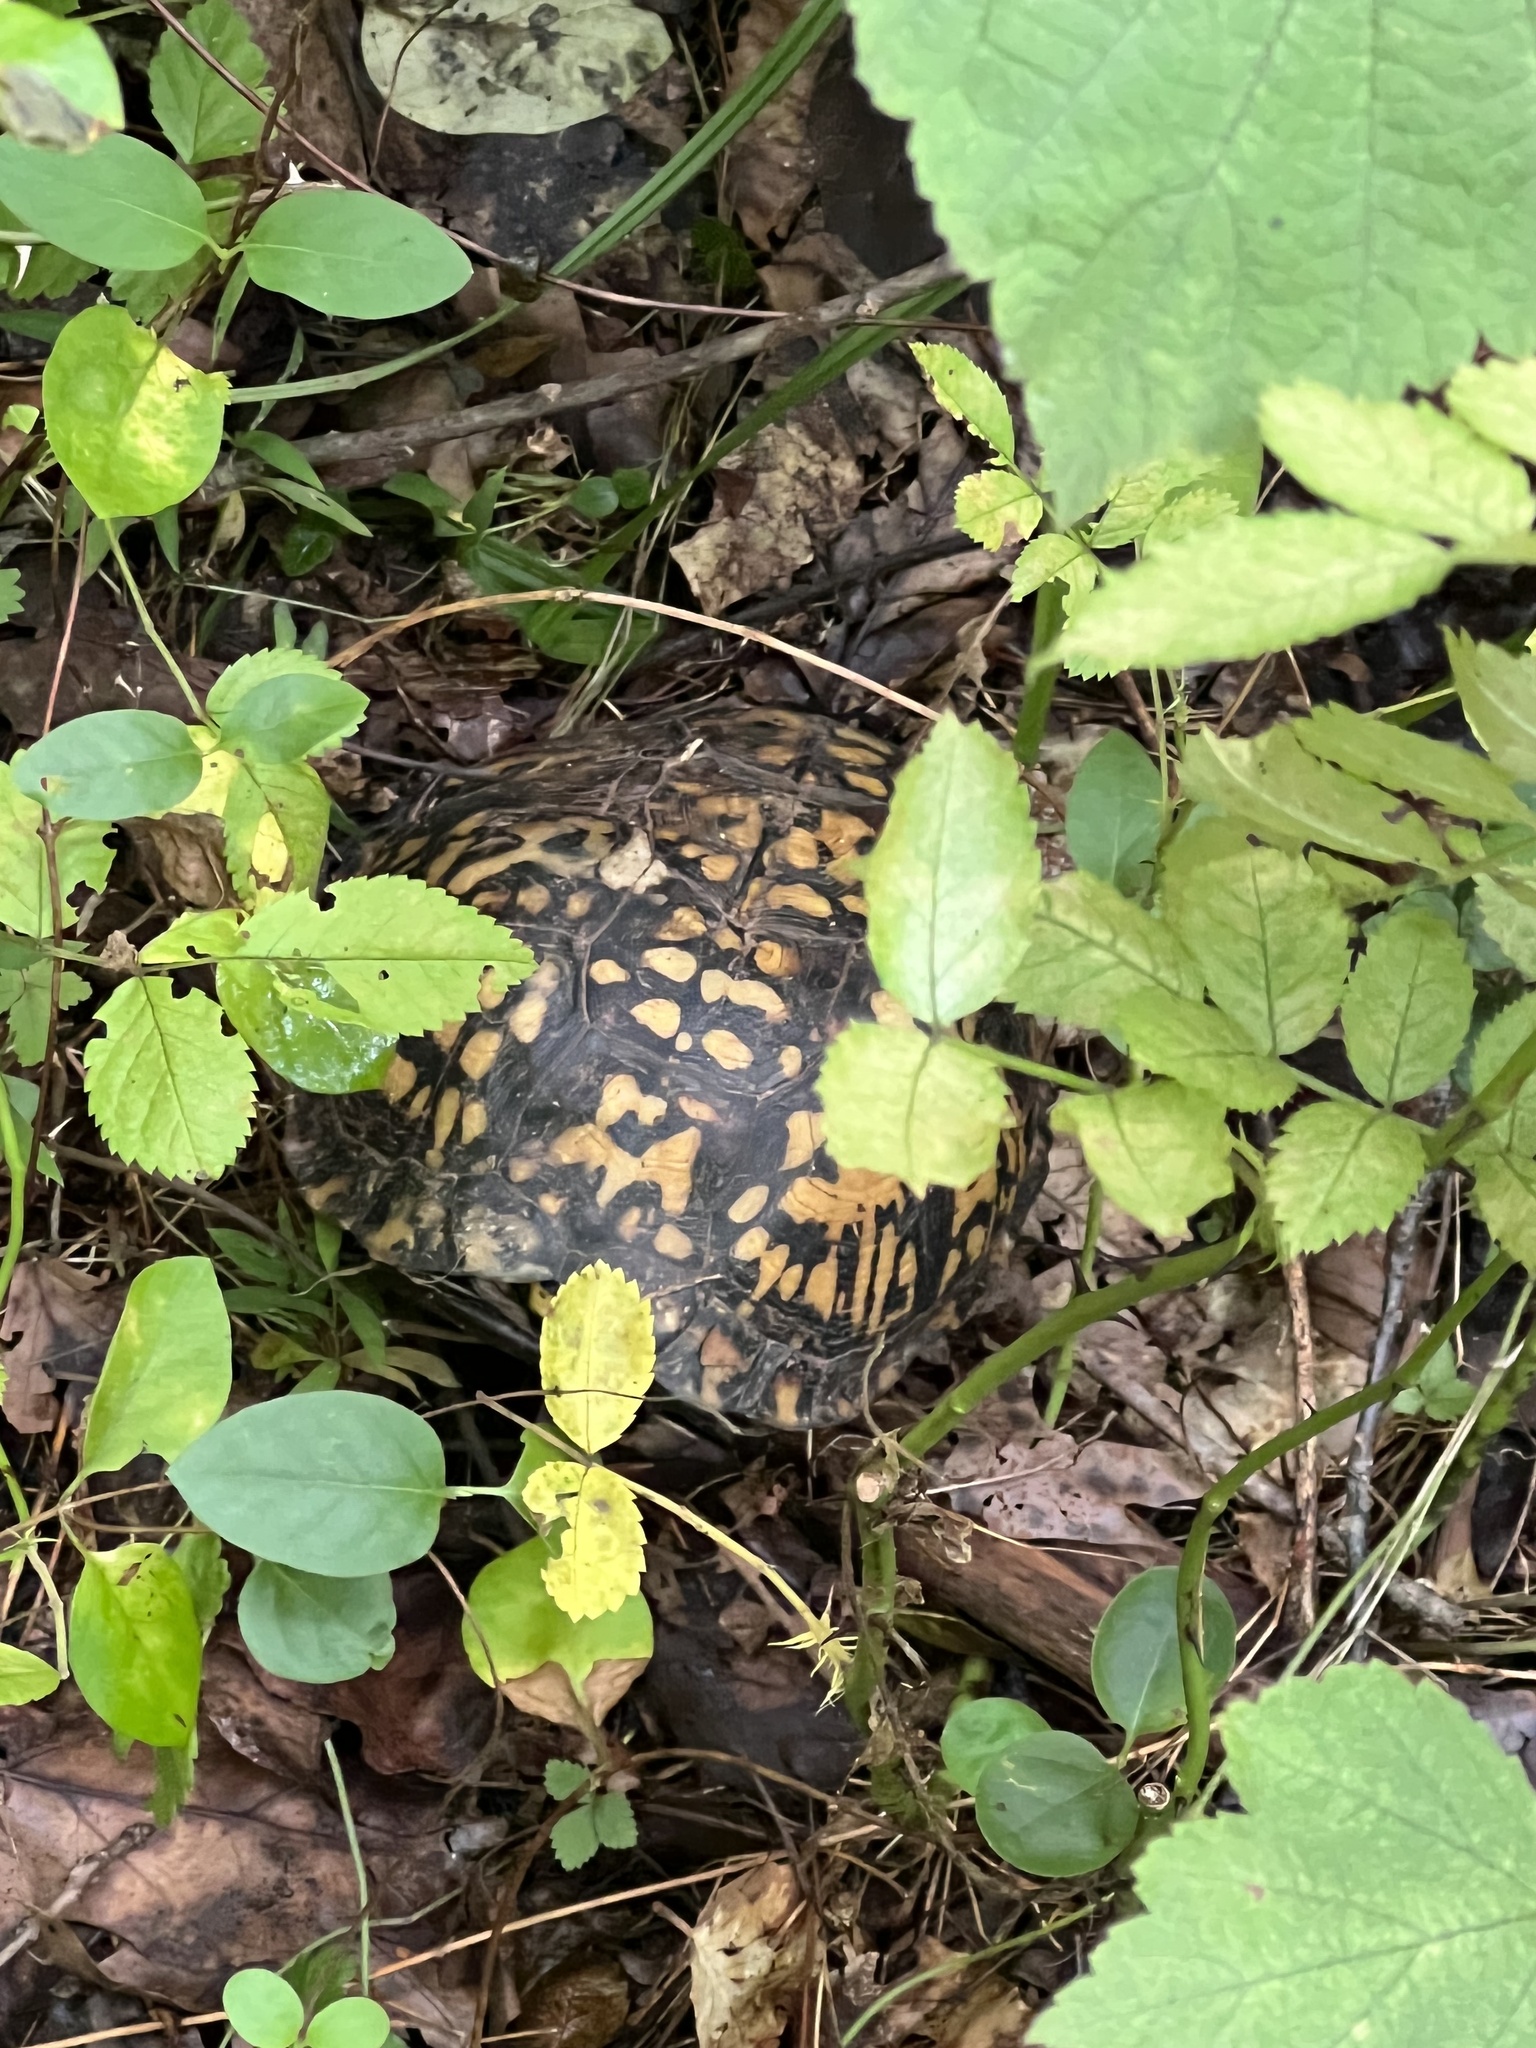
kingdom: Animalia
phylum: Chordata
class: Testudines
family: Emydidae
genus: Terrapene
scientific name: Terrapene carolina
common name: Common box turtle
